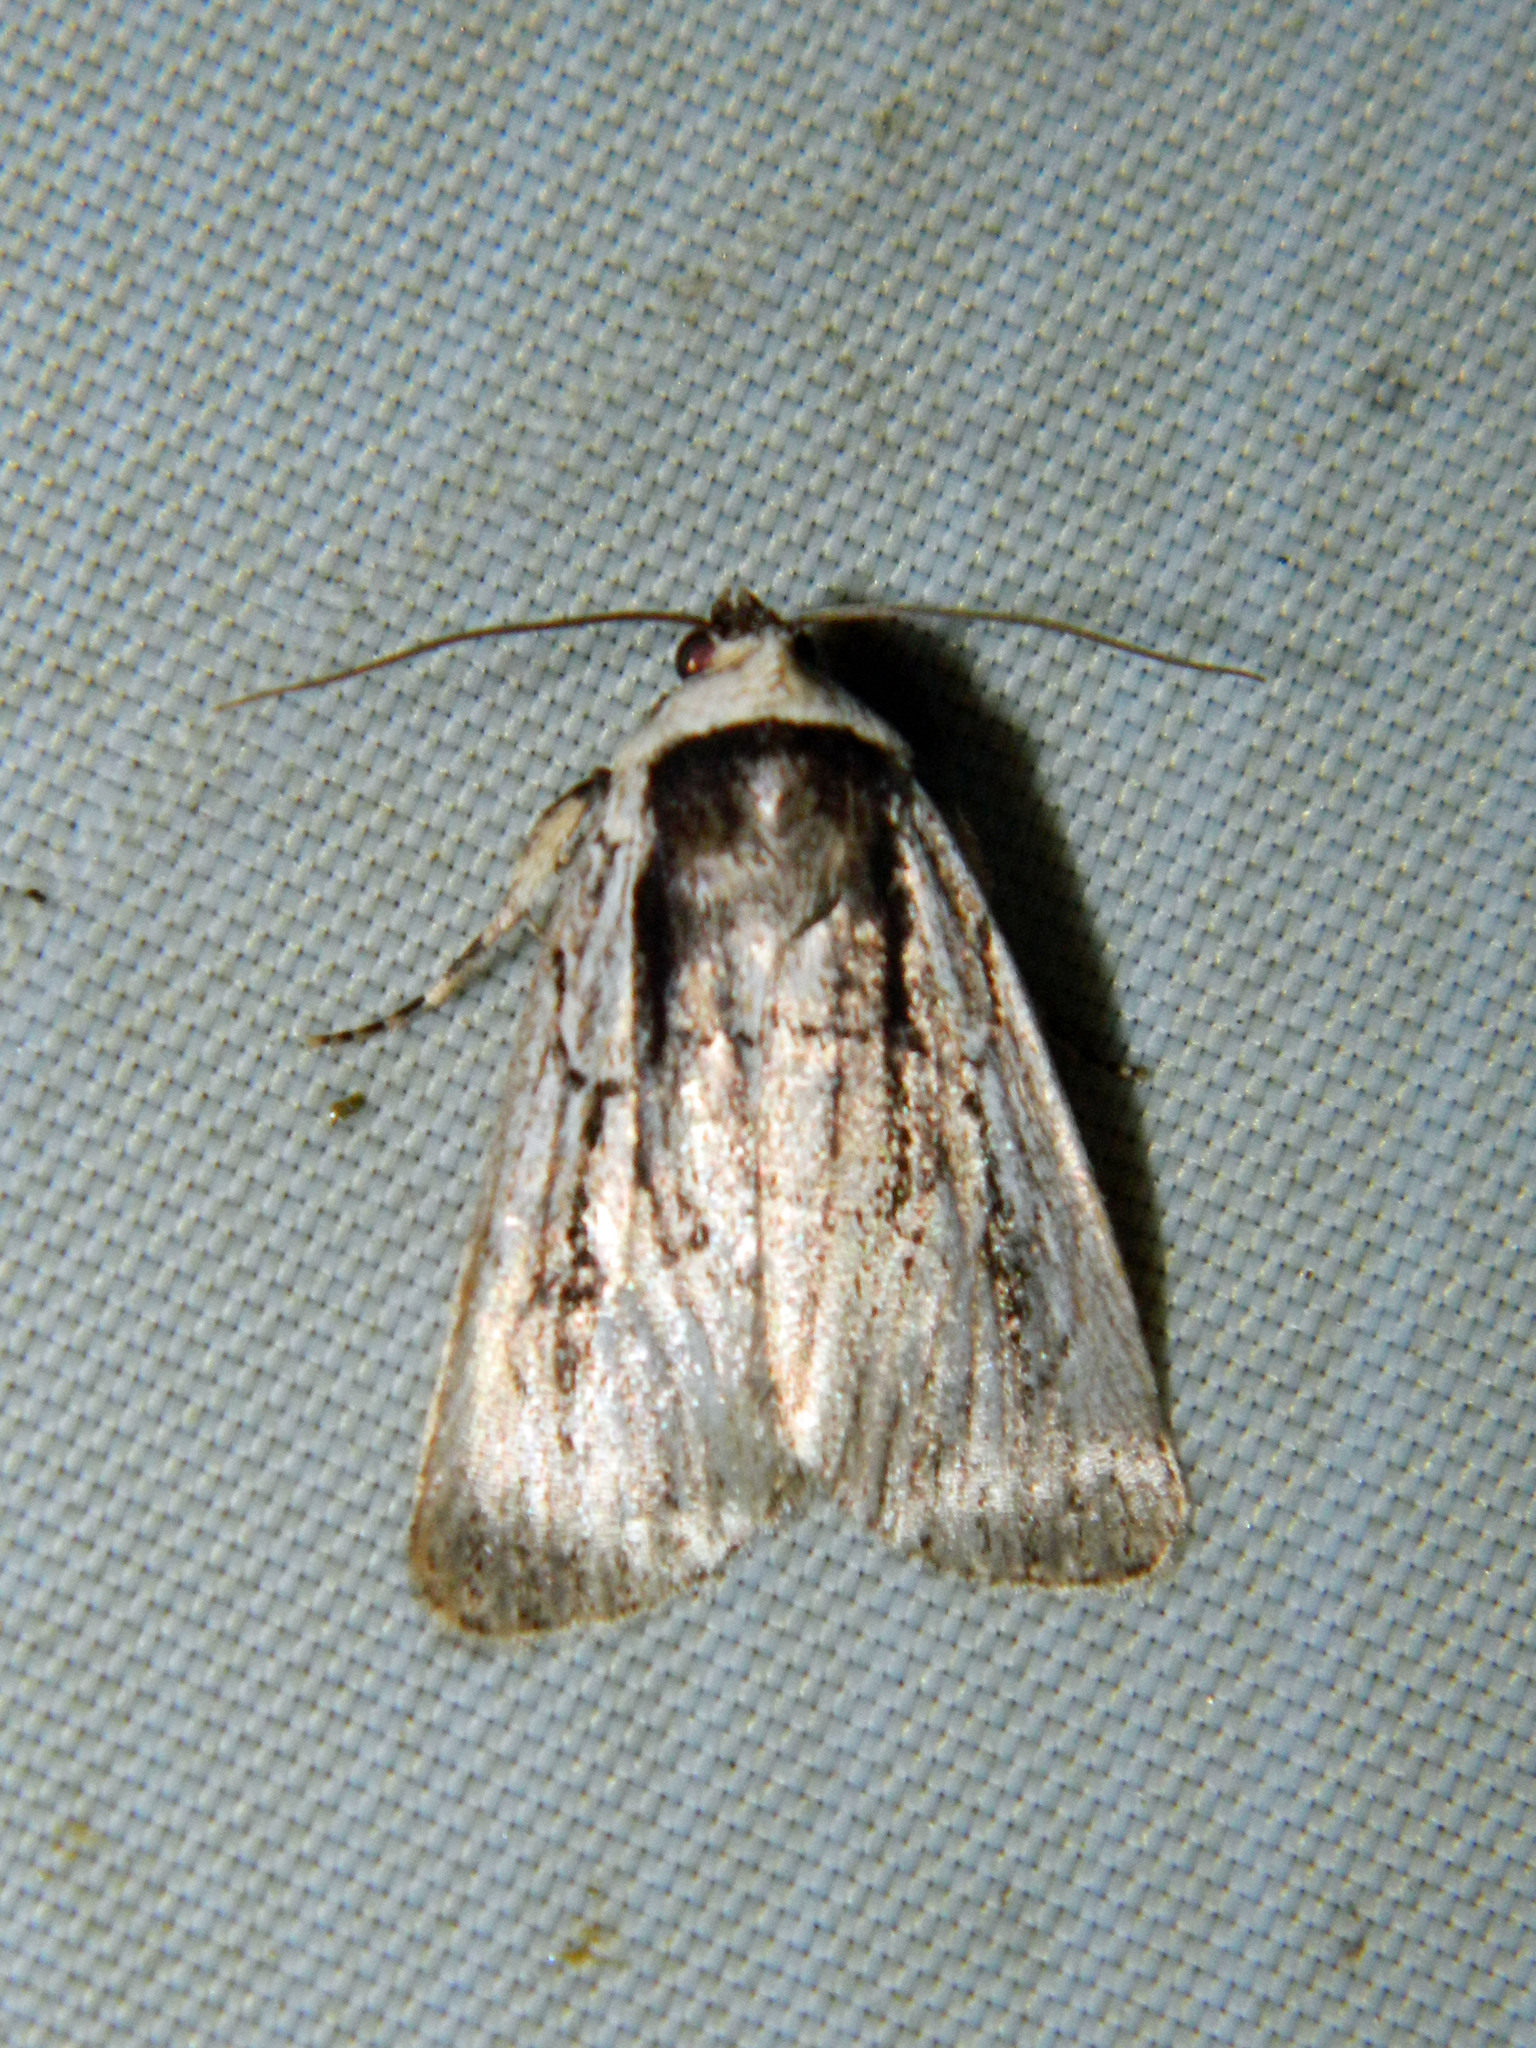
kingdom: Animalia
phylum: Arthropoda
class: Insecta
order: Lepidoptera
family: Noctuidae
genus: Sympistis
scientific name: Sympistis badistriga
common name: Brown-lined sallow moth
